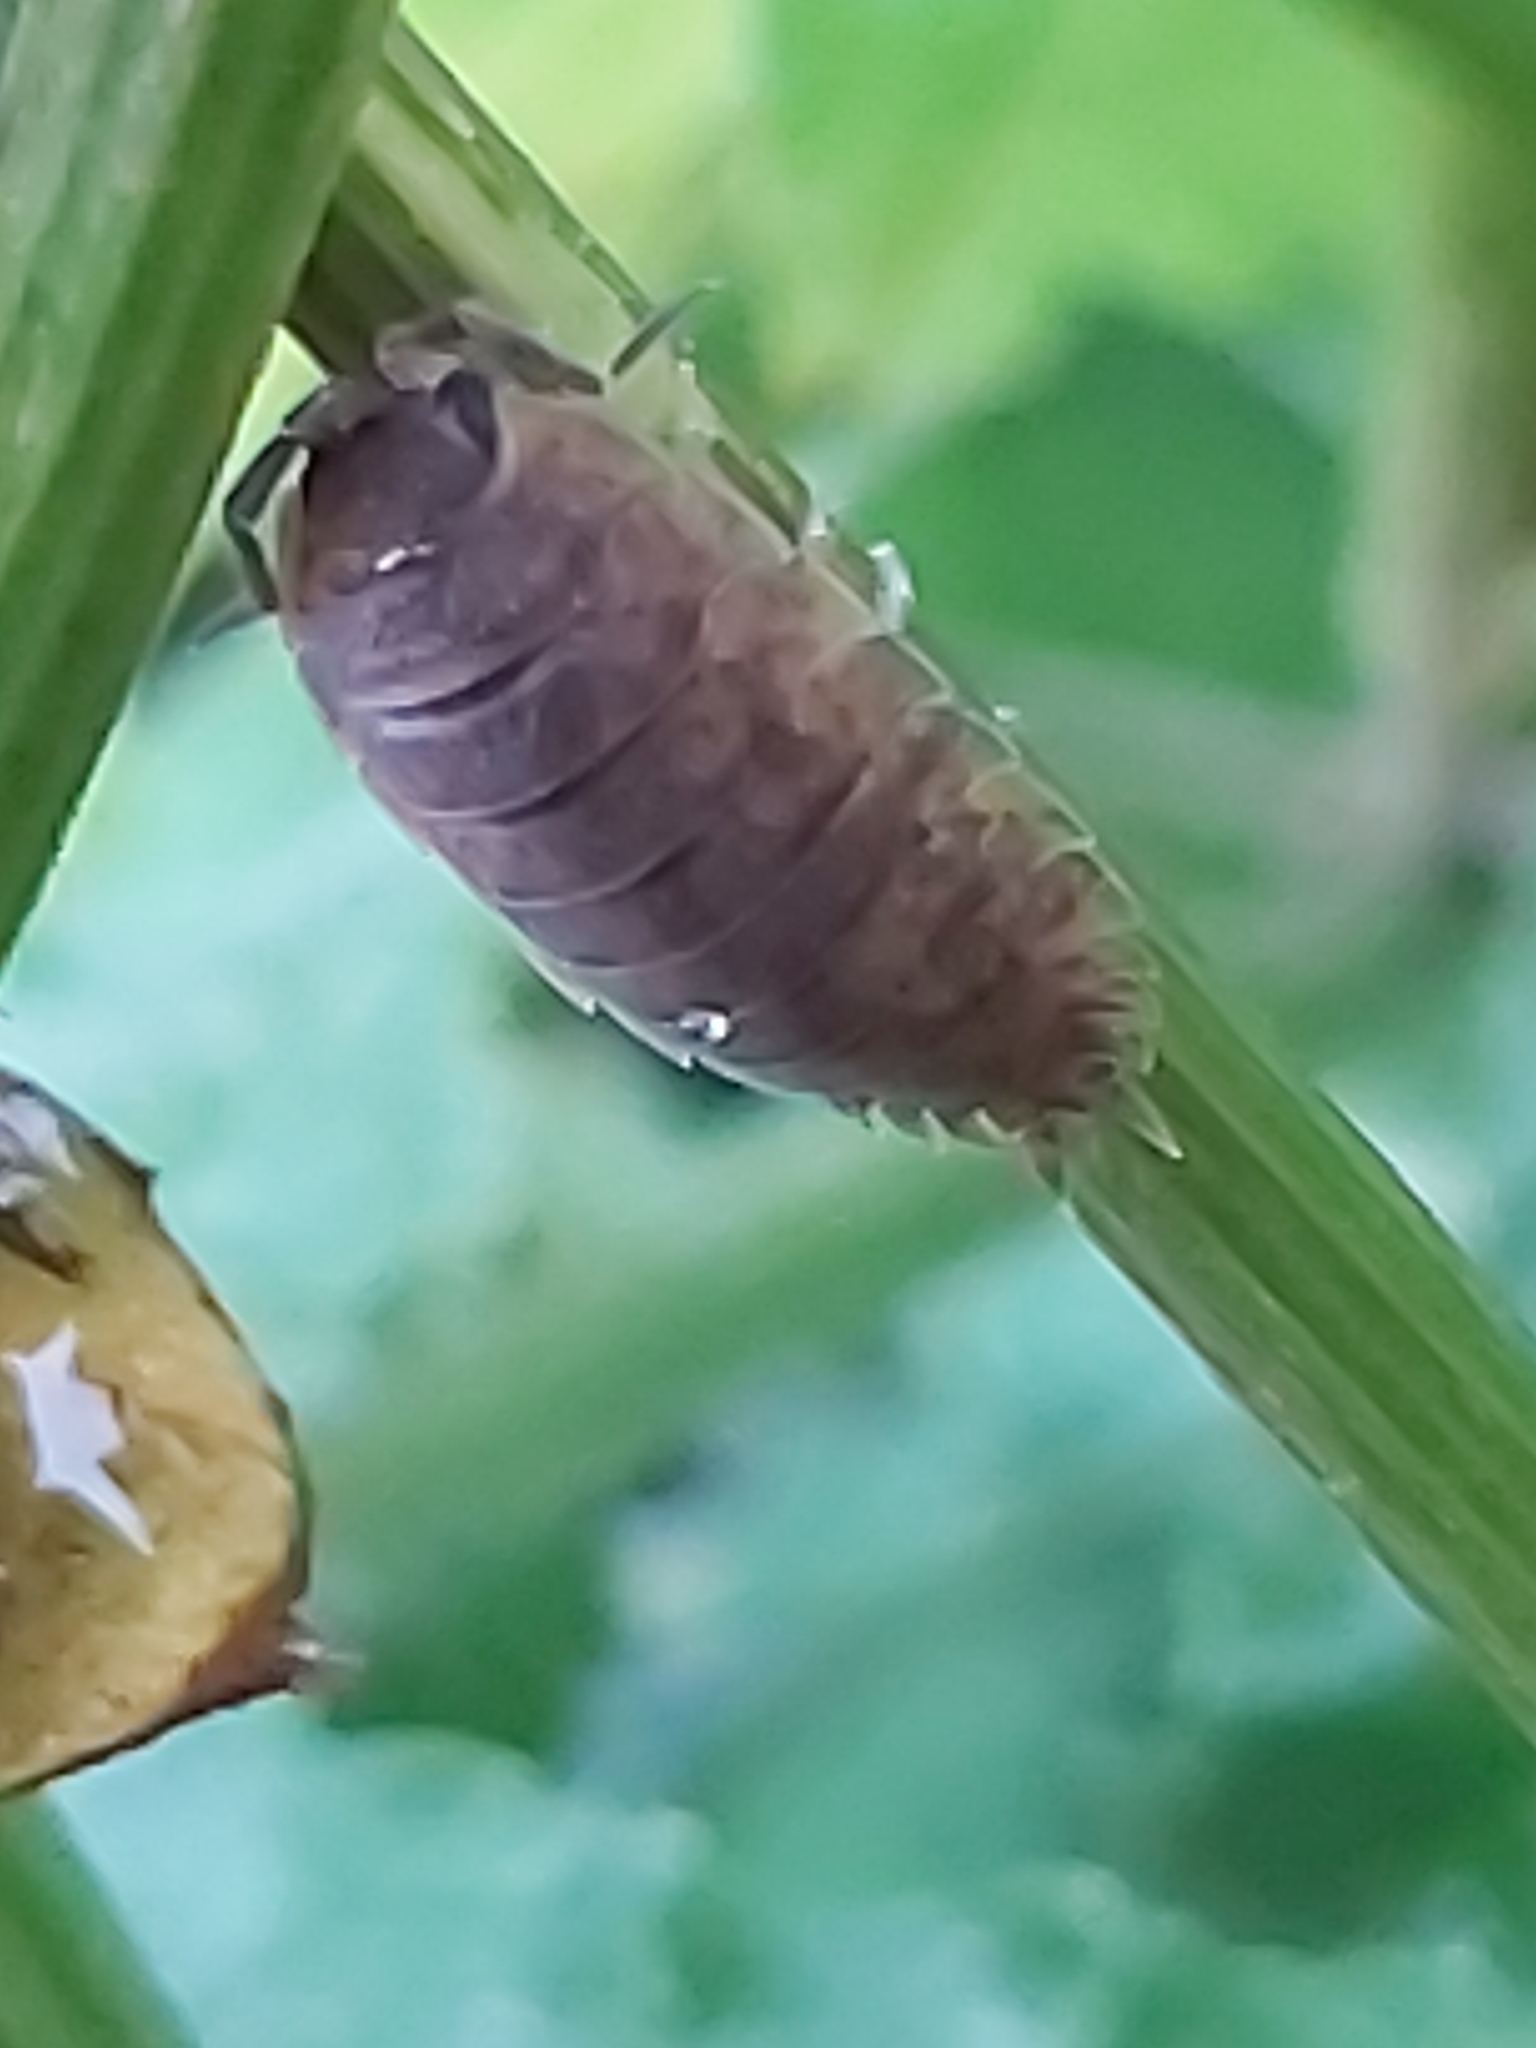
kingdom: Animalia
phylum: Arthropoda
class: Malacostraca
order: Isopoda
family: Porcellionidae
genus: Porcellio
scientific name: Porcellio scaber
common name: Common rough woodlouse
